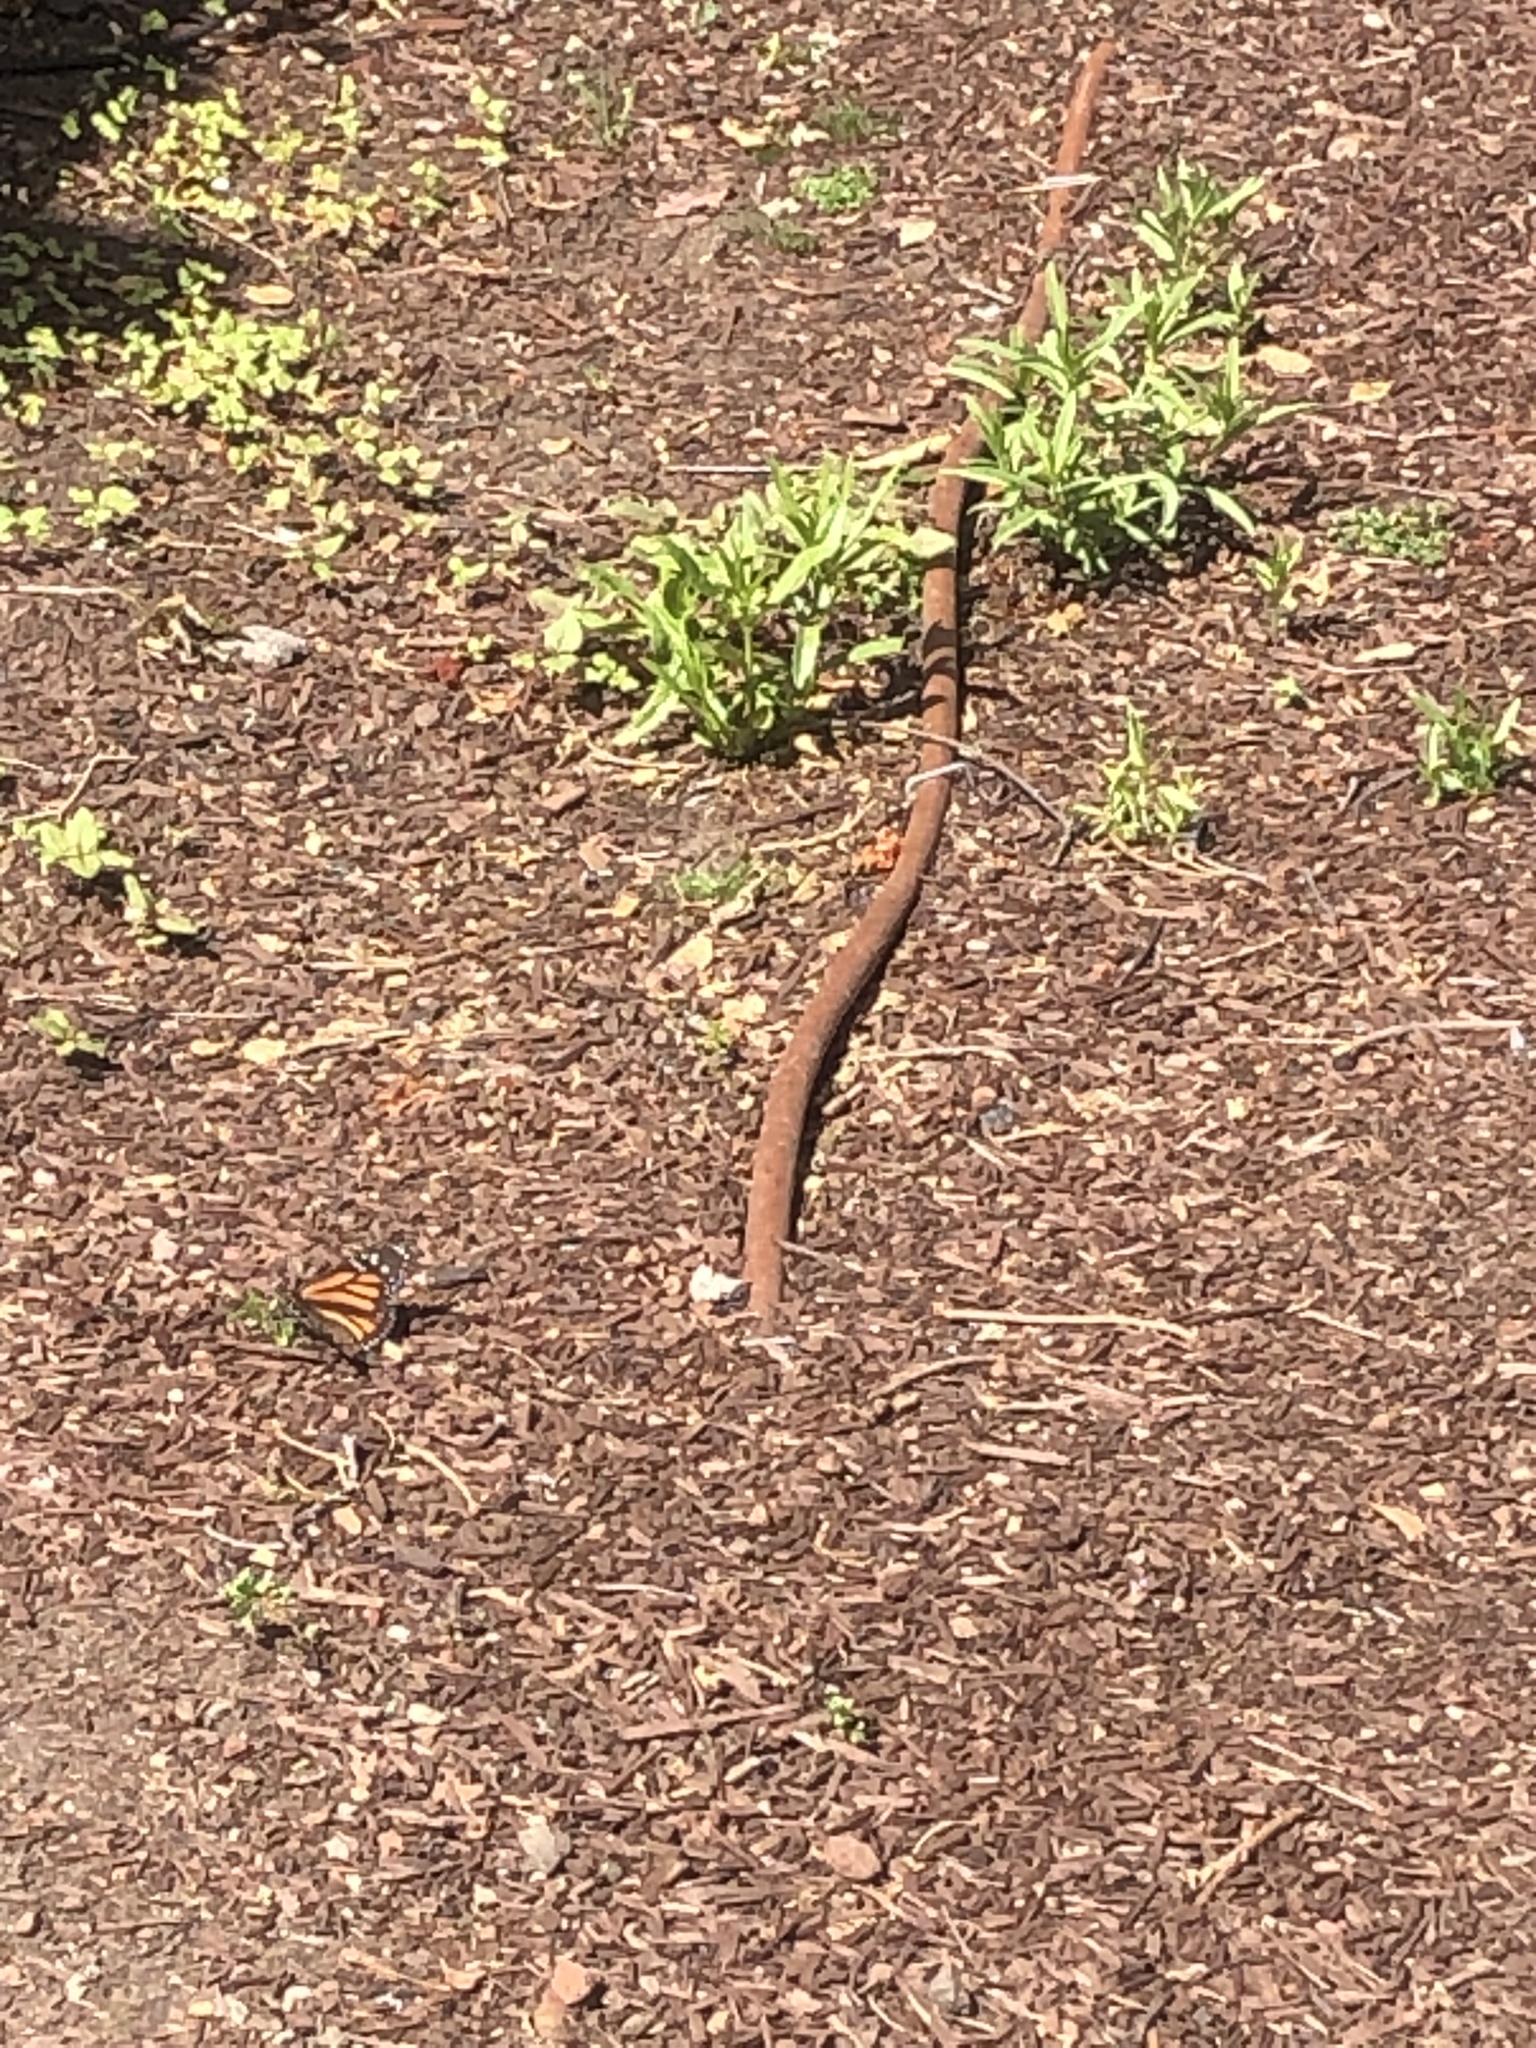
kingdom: Animalia
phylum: Arthropoda
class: Insecta
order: Lepidoptera
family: Nymphalidae
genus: Danaus
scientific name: Danaus plexippus
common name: Monarch
